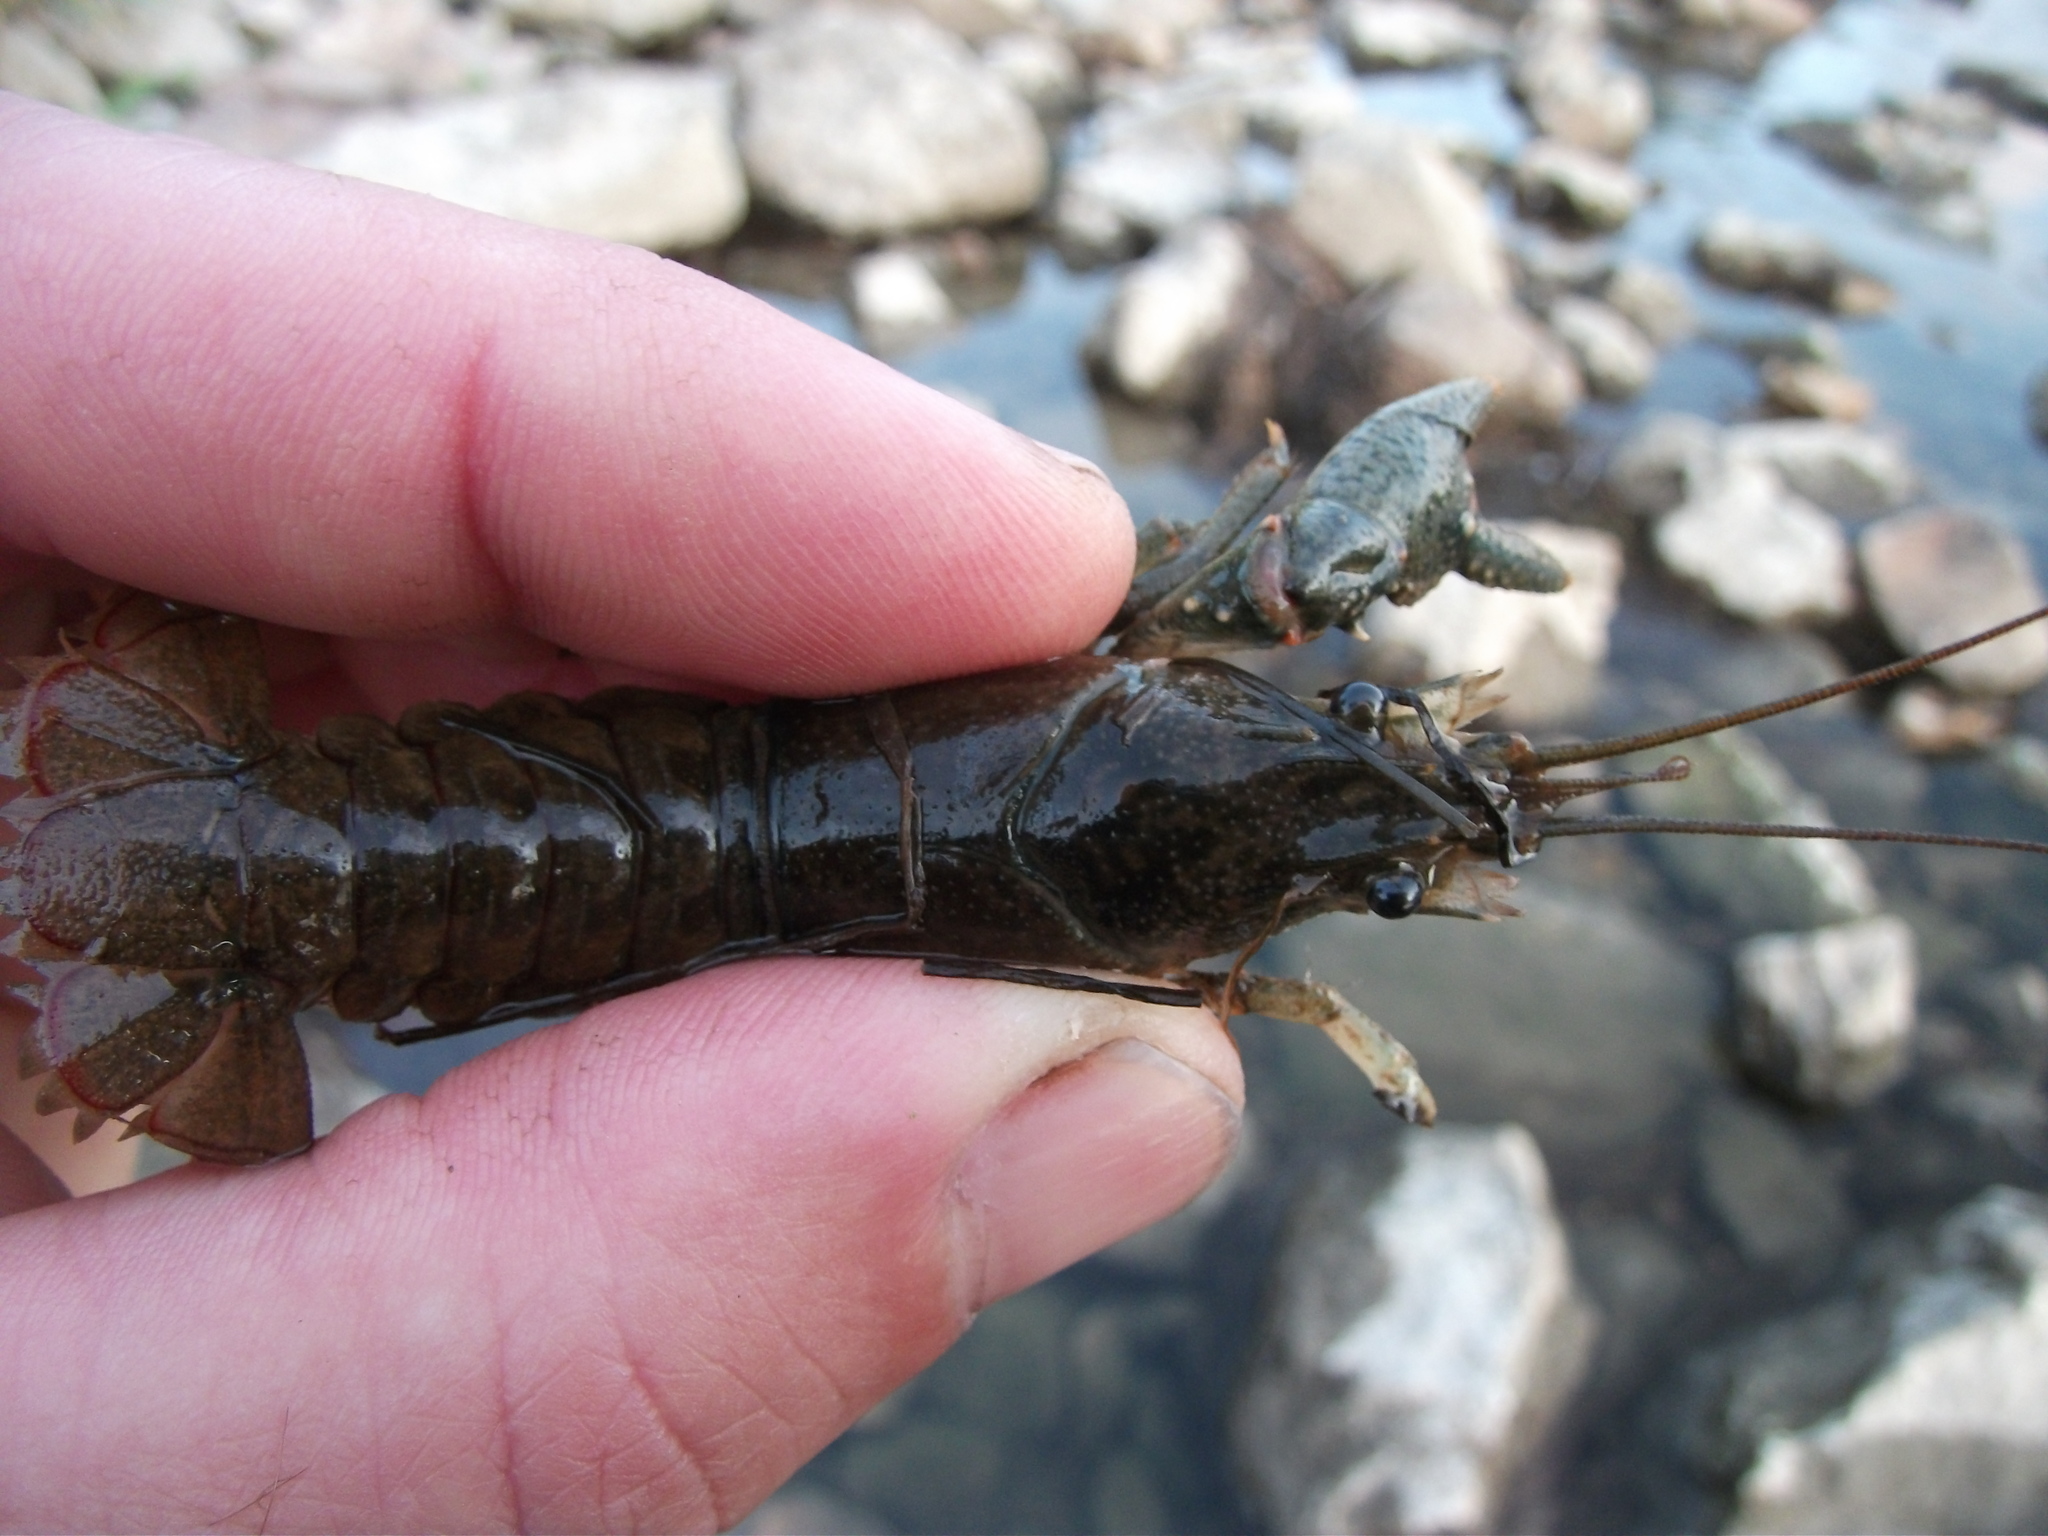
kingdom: Animalia
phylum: Arthropoda
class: Malacostraca
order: Decapoda
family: Cambaridae
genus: Faxonius
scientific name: Faxonius virilis
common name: Virile crayfish
